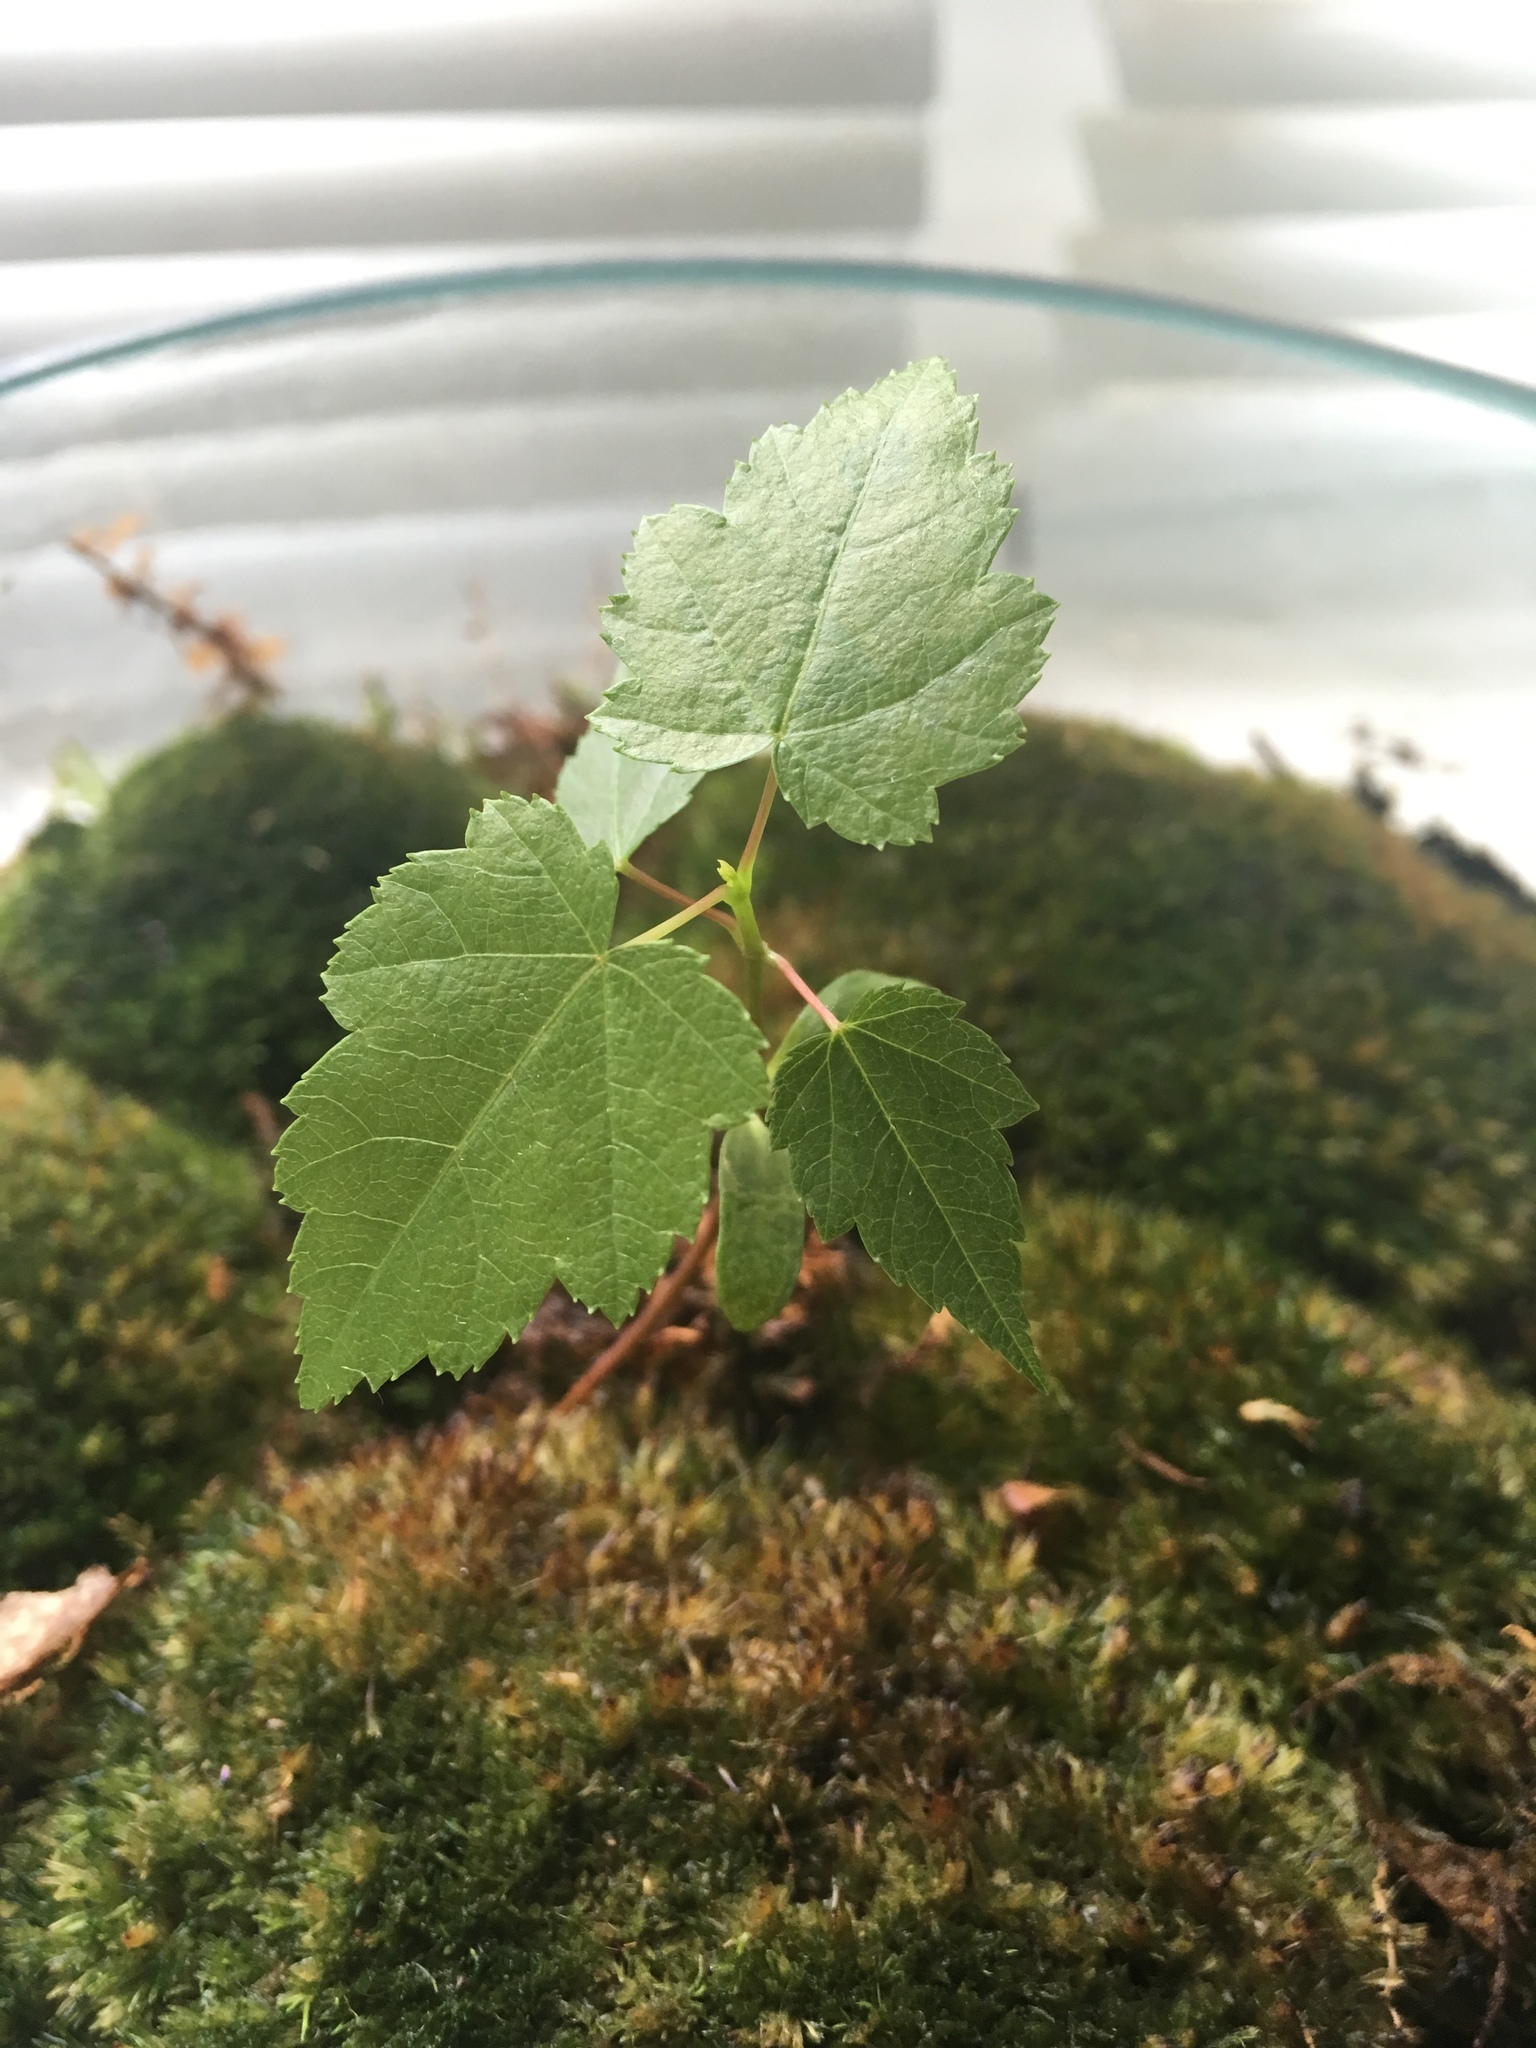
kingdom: Plantae
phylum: Tracheophyta
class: Magnoliopsida
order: Sapindales
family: Sapindaceae
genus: Acer
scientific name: Acer rubrum
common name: Red maple
